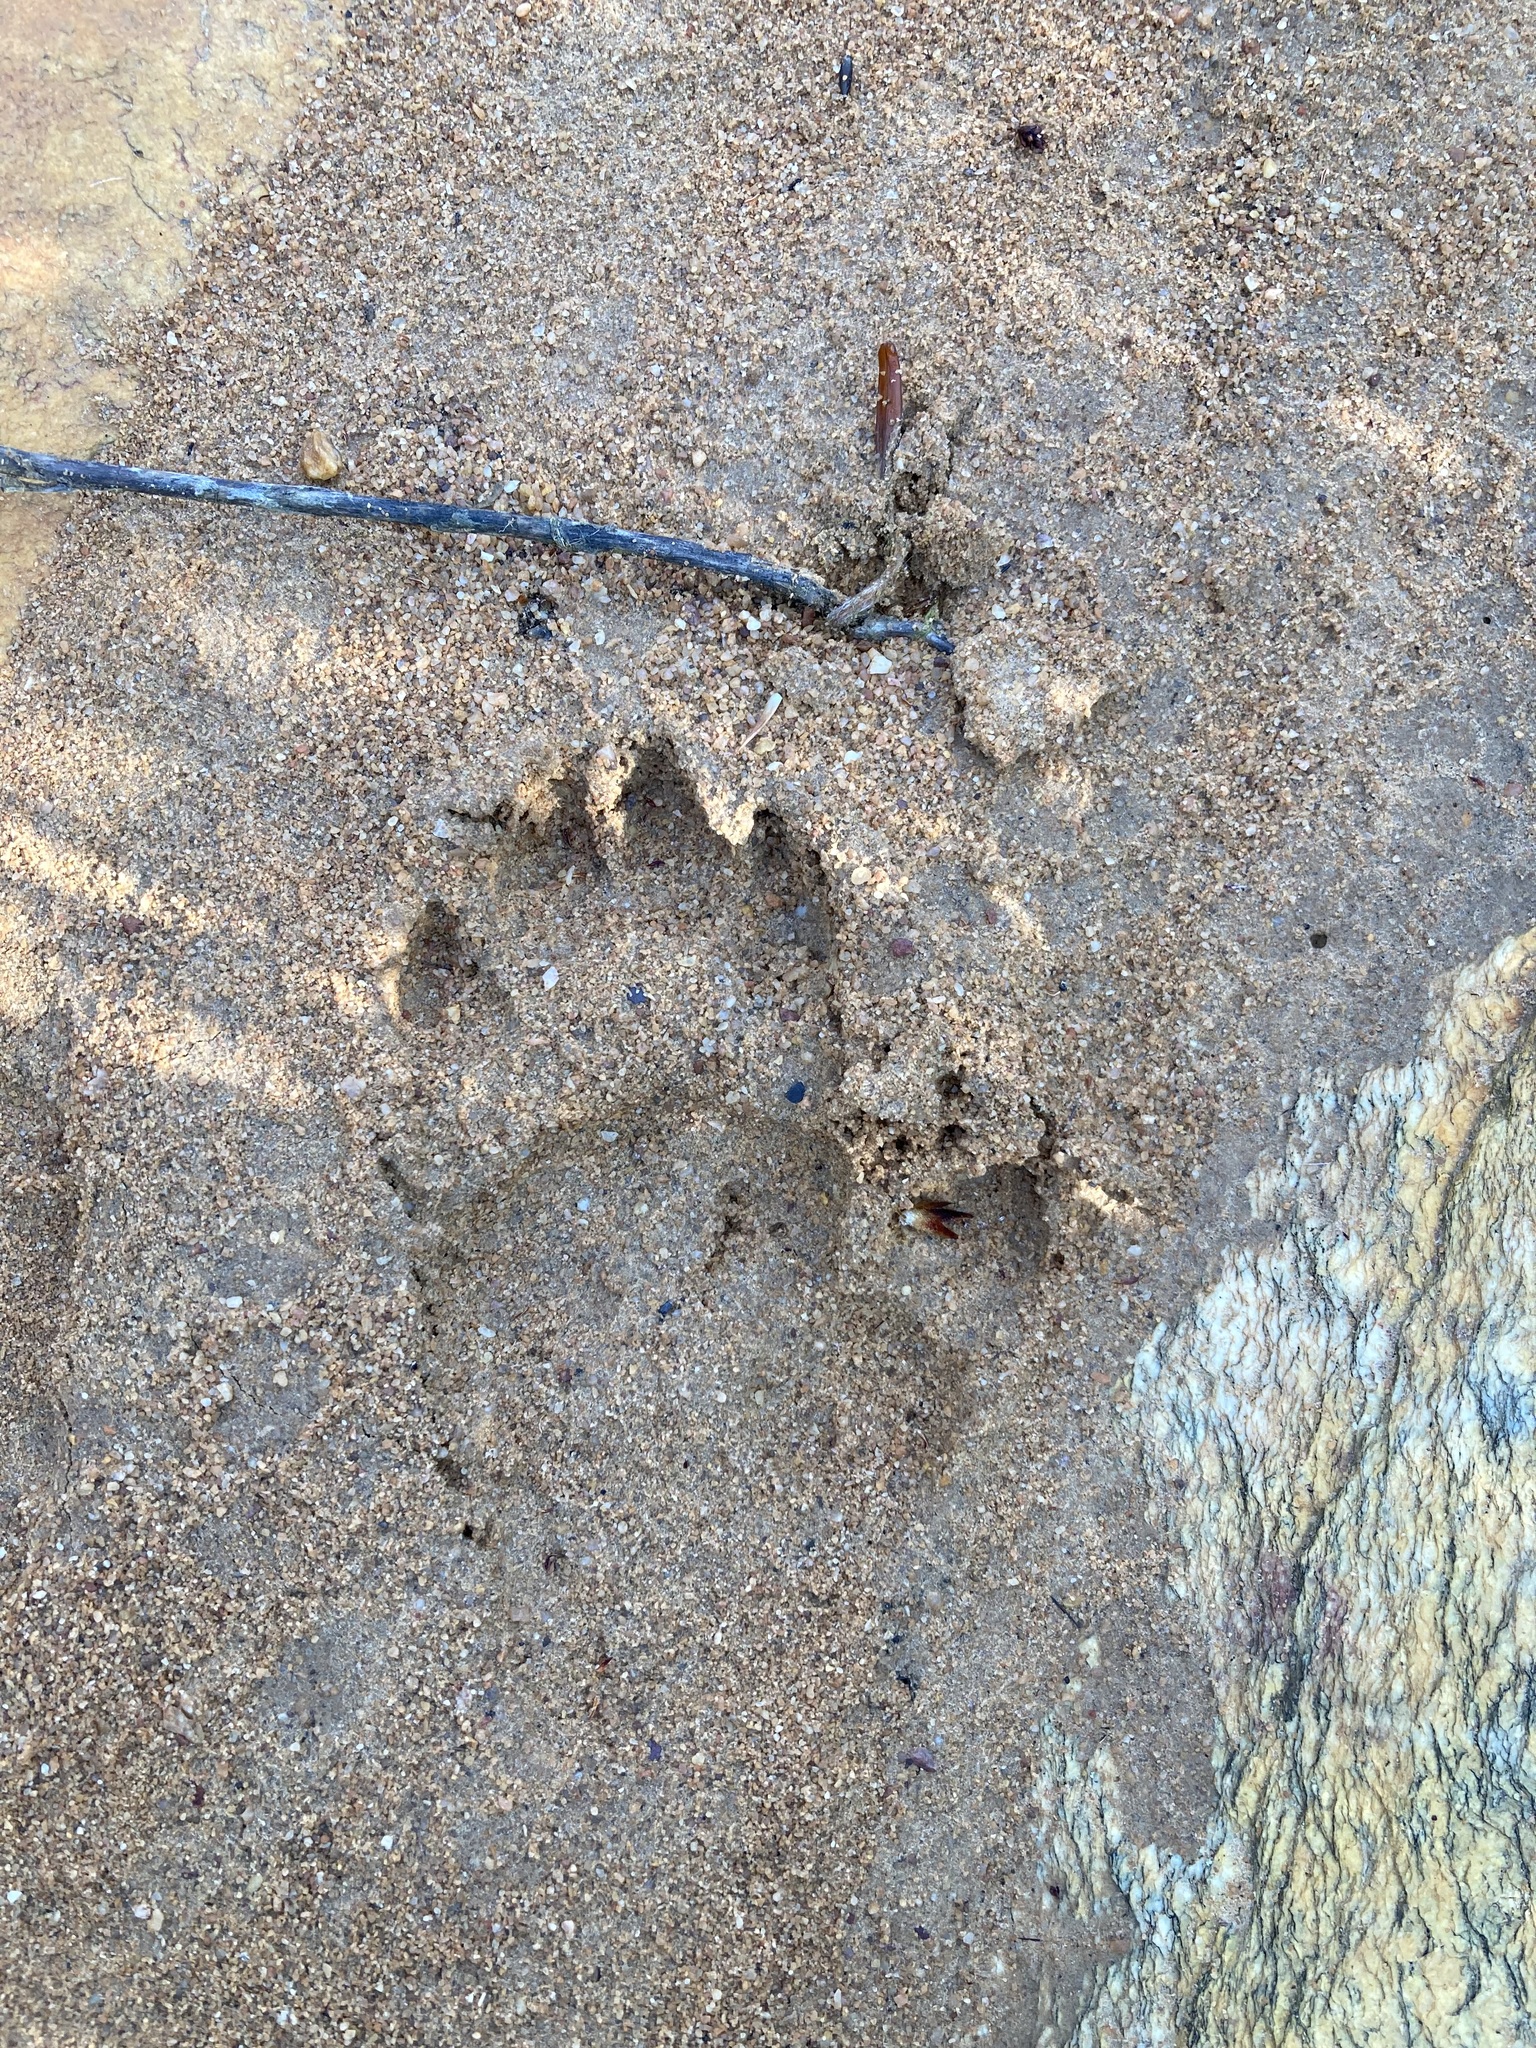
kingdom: Animalia
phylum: Chordata
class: Mammalia
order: Primates
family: Cercopithecidae
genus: Papio
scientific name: Papio ursinus
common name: Chacma baboon
